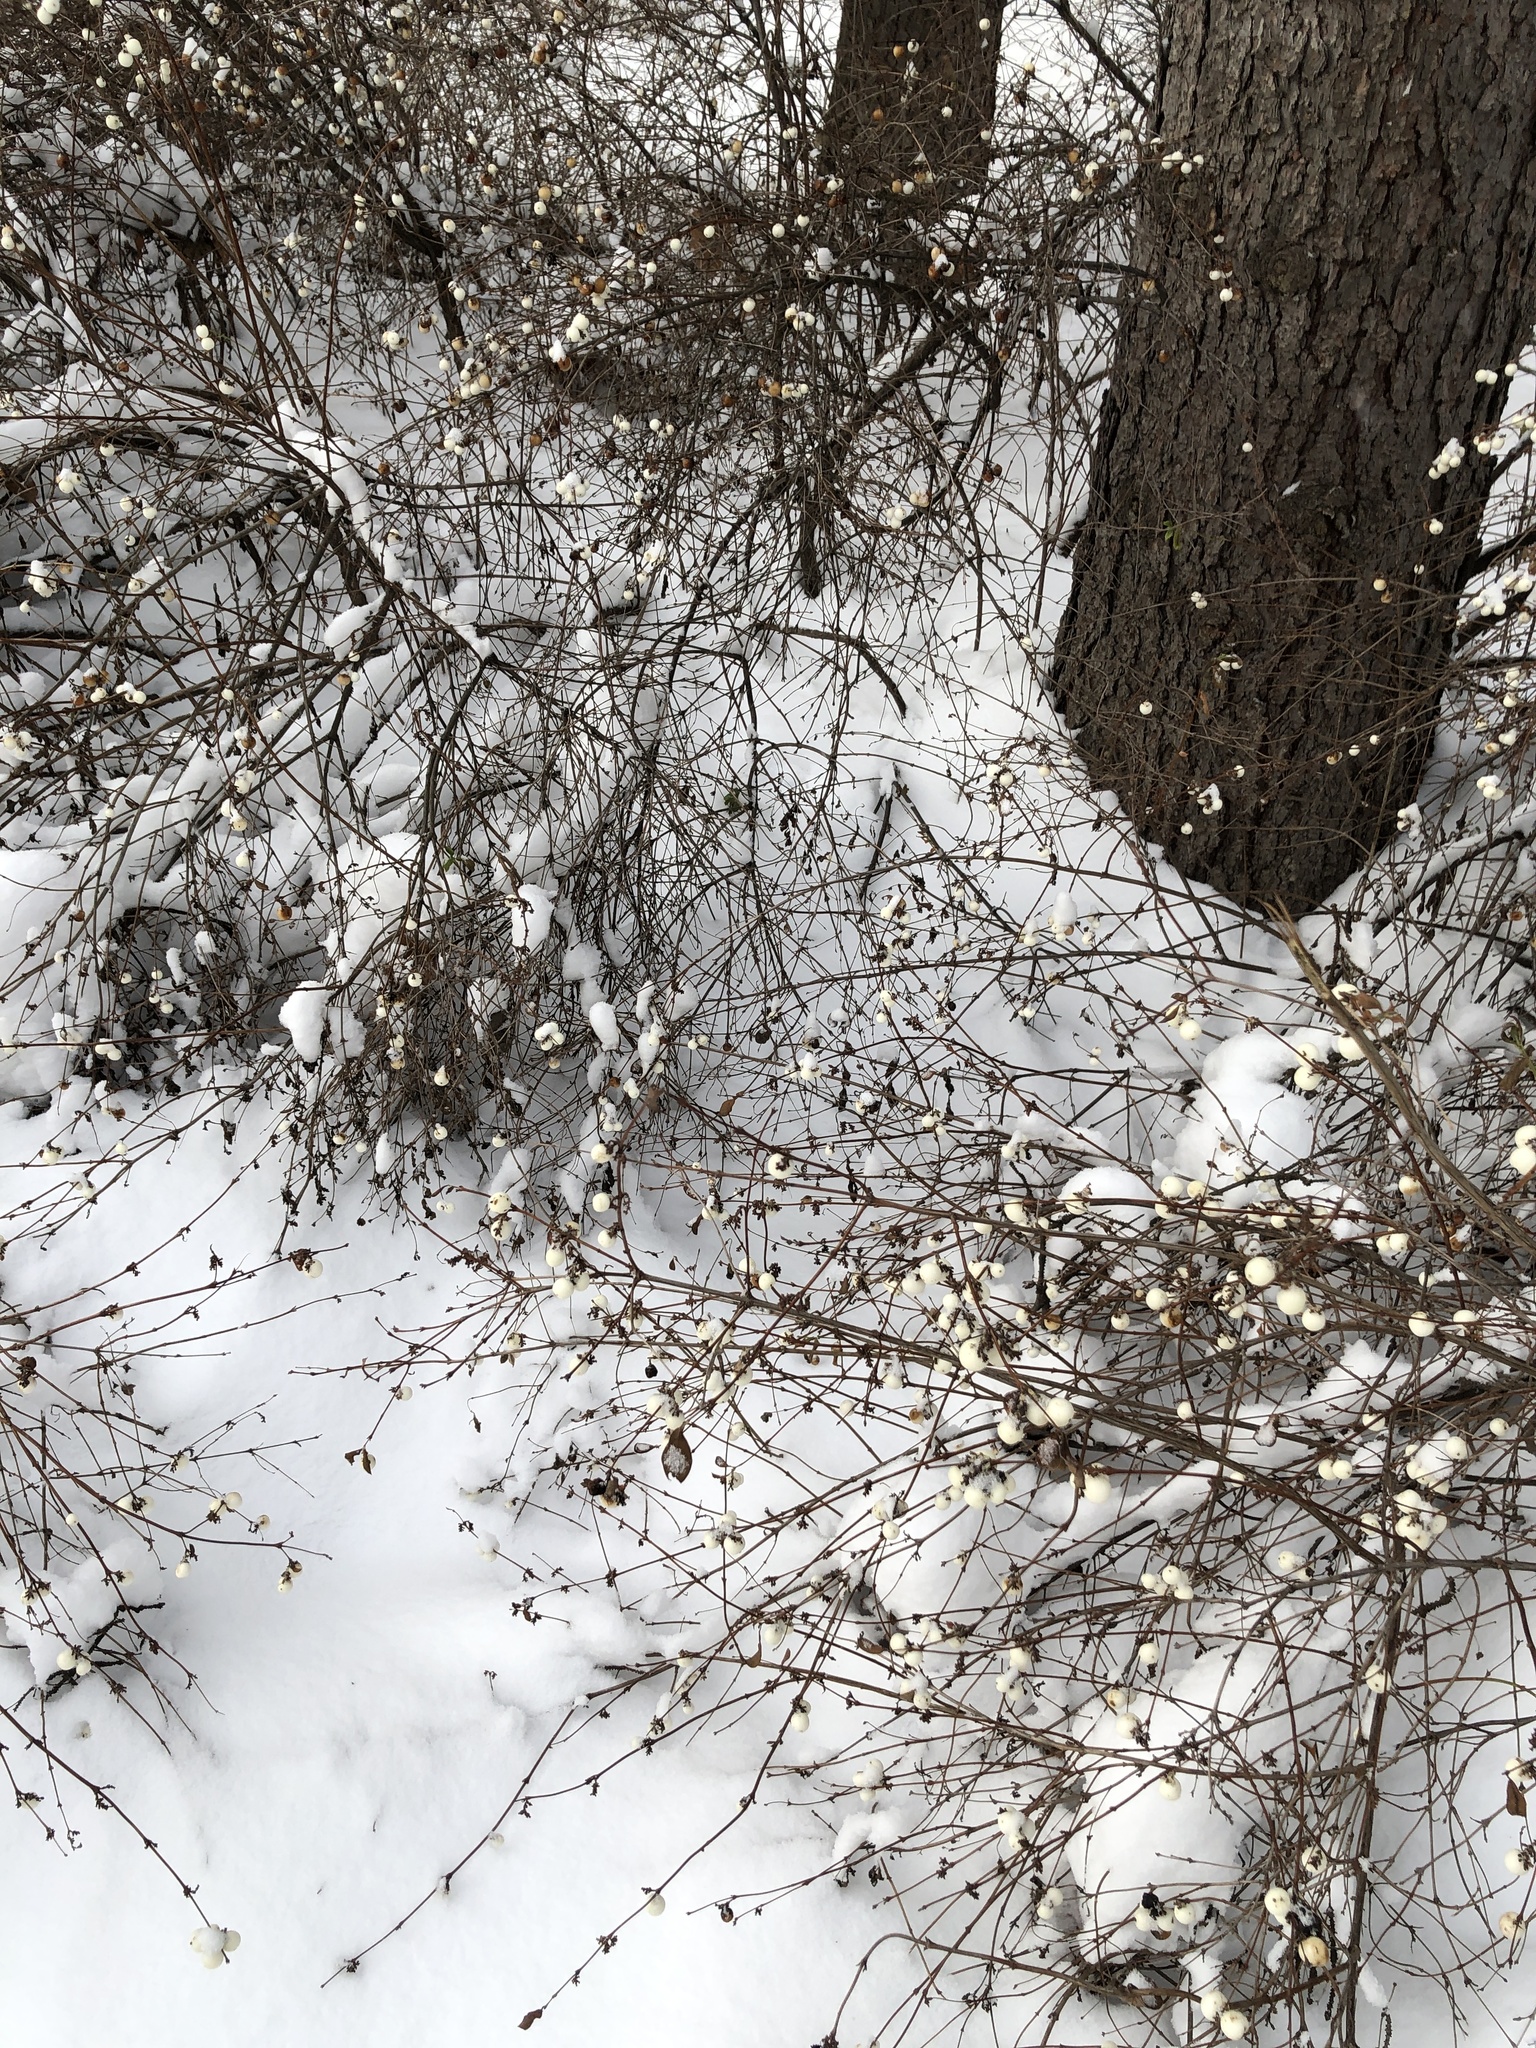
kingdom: Plantae
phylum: Tracheophyta
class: Magnoliopsida
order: Dipsacales
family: Caprifoliaceae
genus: Symphoricarpos
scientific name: Symphoricarpos albus
